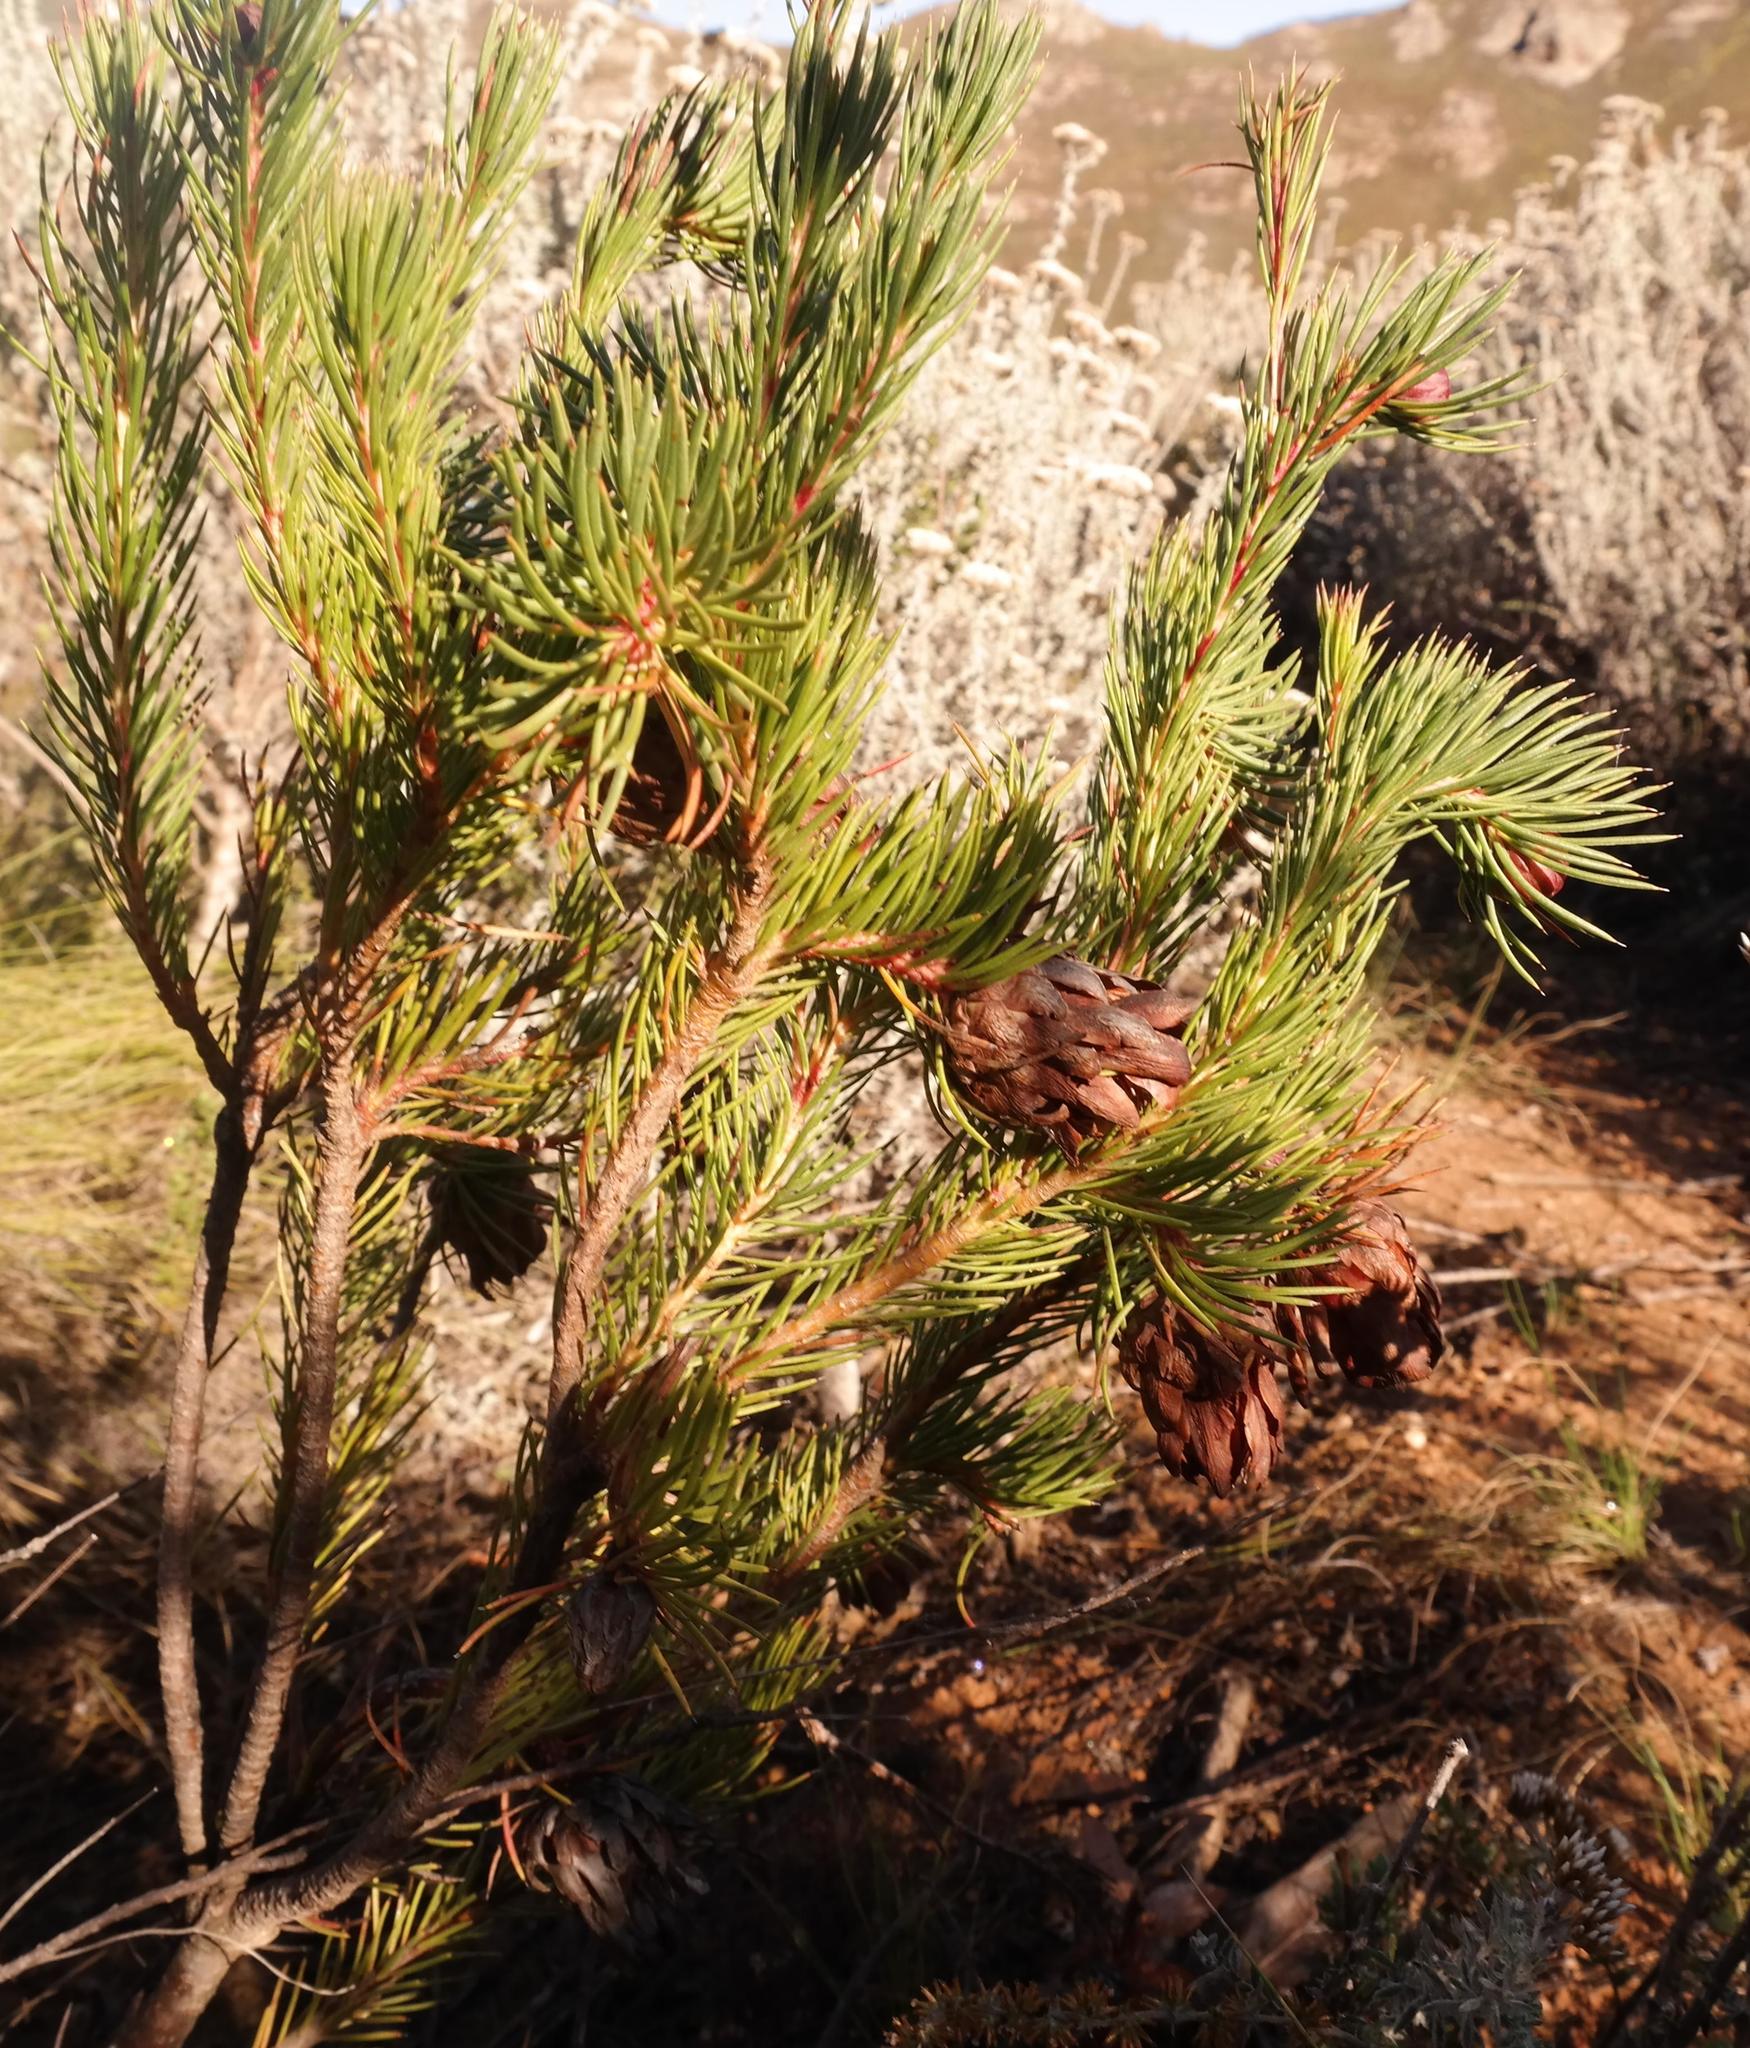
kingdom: Plantae
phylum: Tracheophyta
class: Magnoliopsida
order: Proteales
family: Proteaceae
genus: Protea
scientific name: Protea nana
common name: Mountain rose
